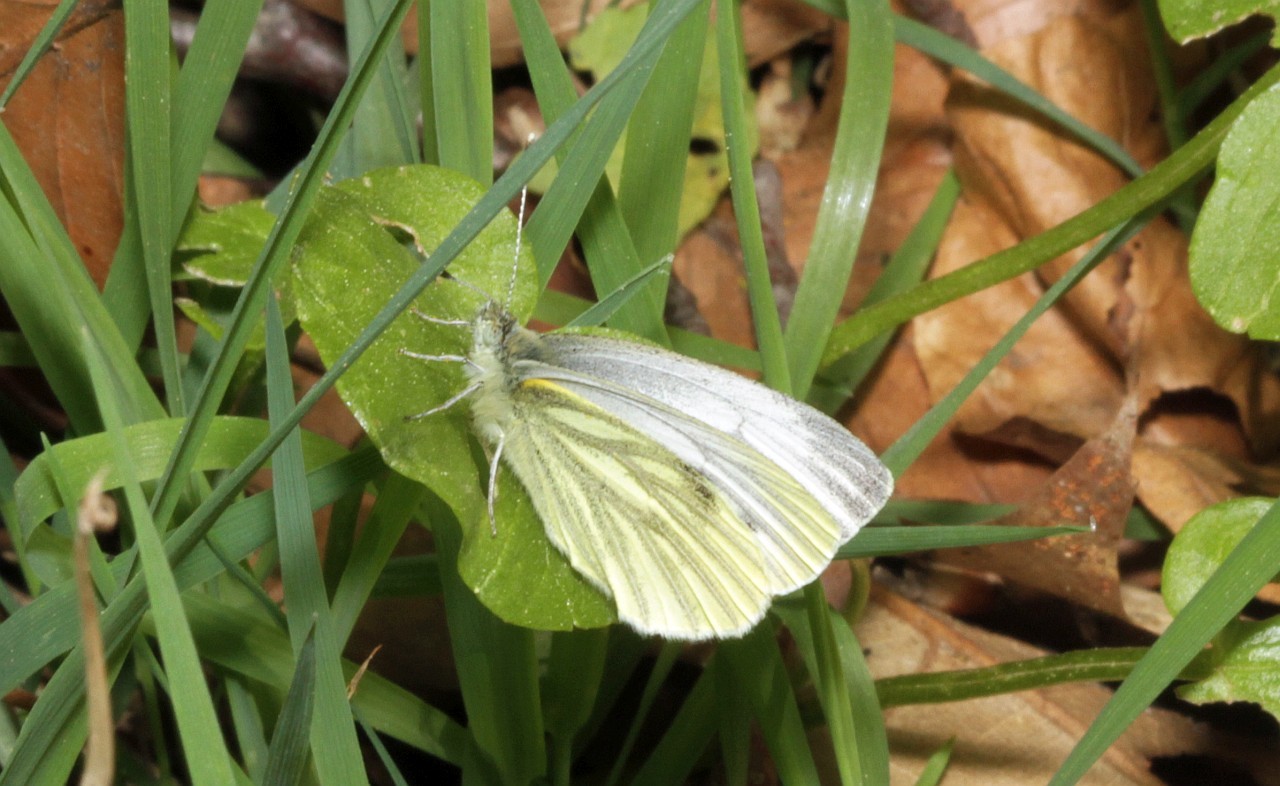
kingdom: Animalia
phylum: Arthropoda
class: Insecta
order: Lepidoptera
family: Pieridae
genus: Pieris
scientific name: Pieris napi
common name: Green-veined white
